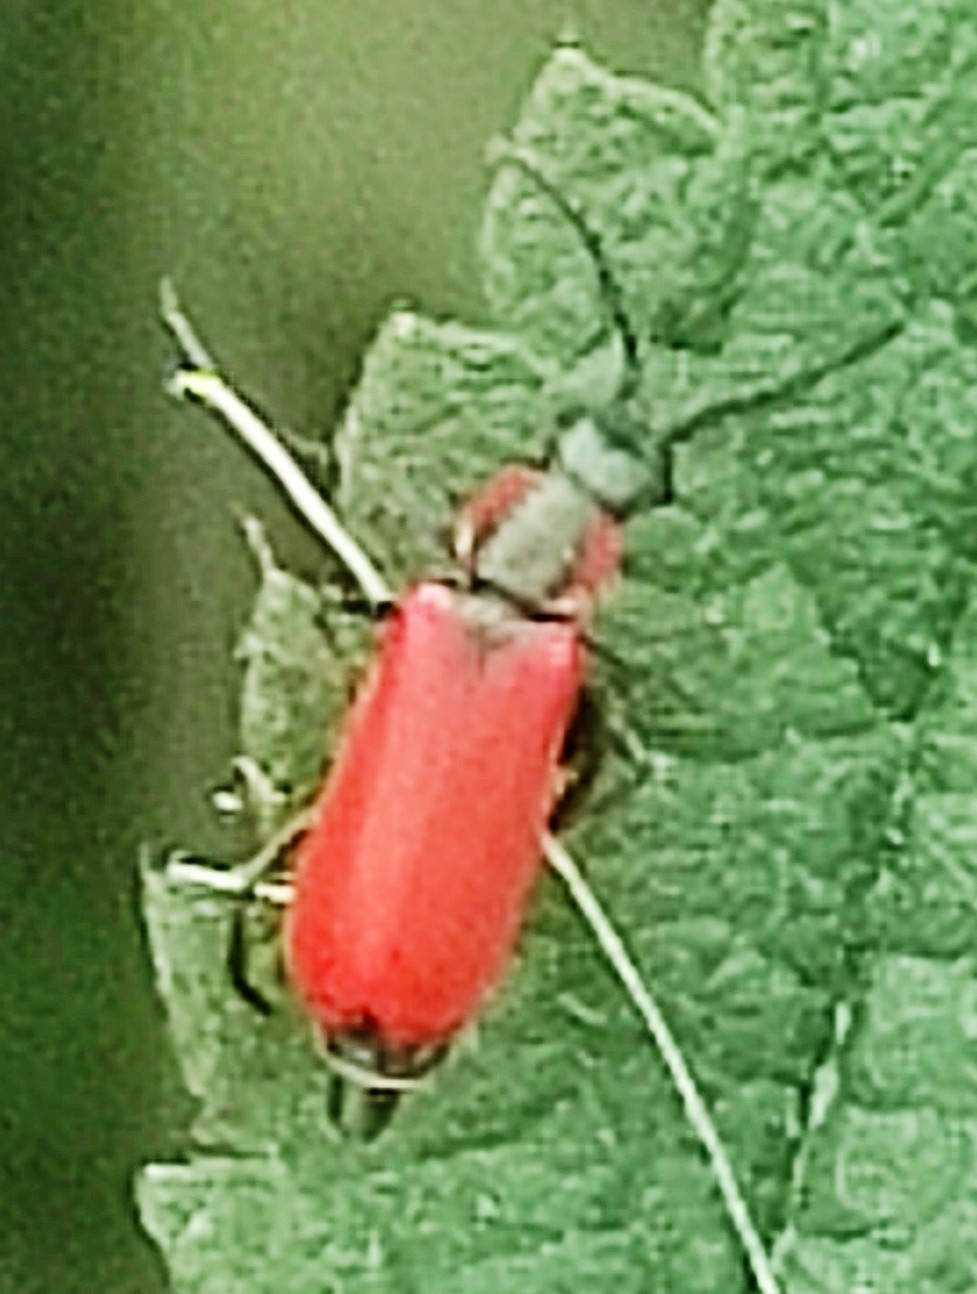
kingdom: Animalia
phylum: Arthropoda
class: Insecta
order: Coleoptera
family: Melyridae
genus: Anthocomus
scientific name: Anthocomus rufus
